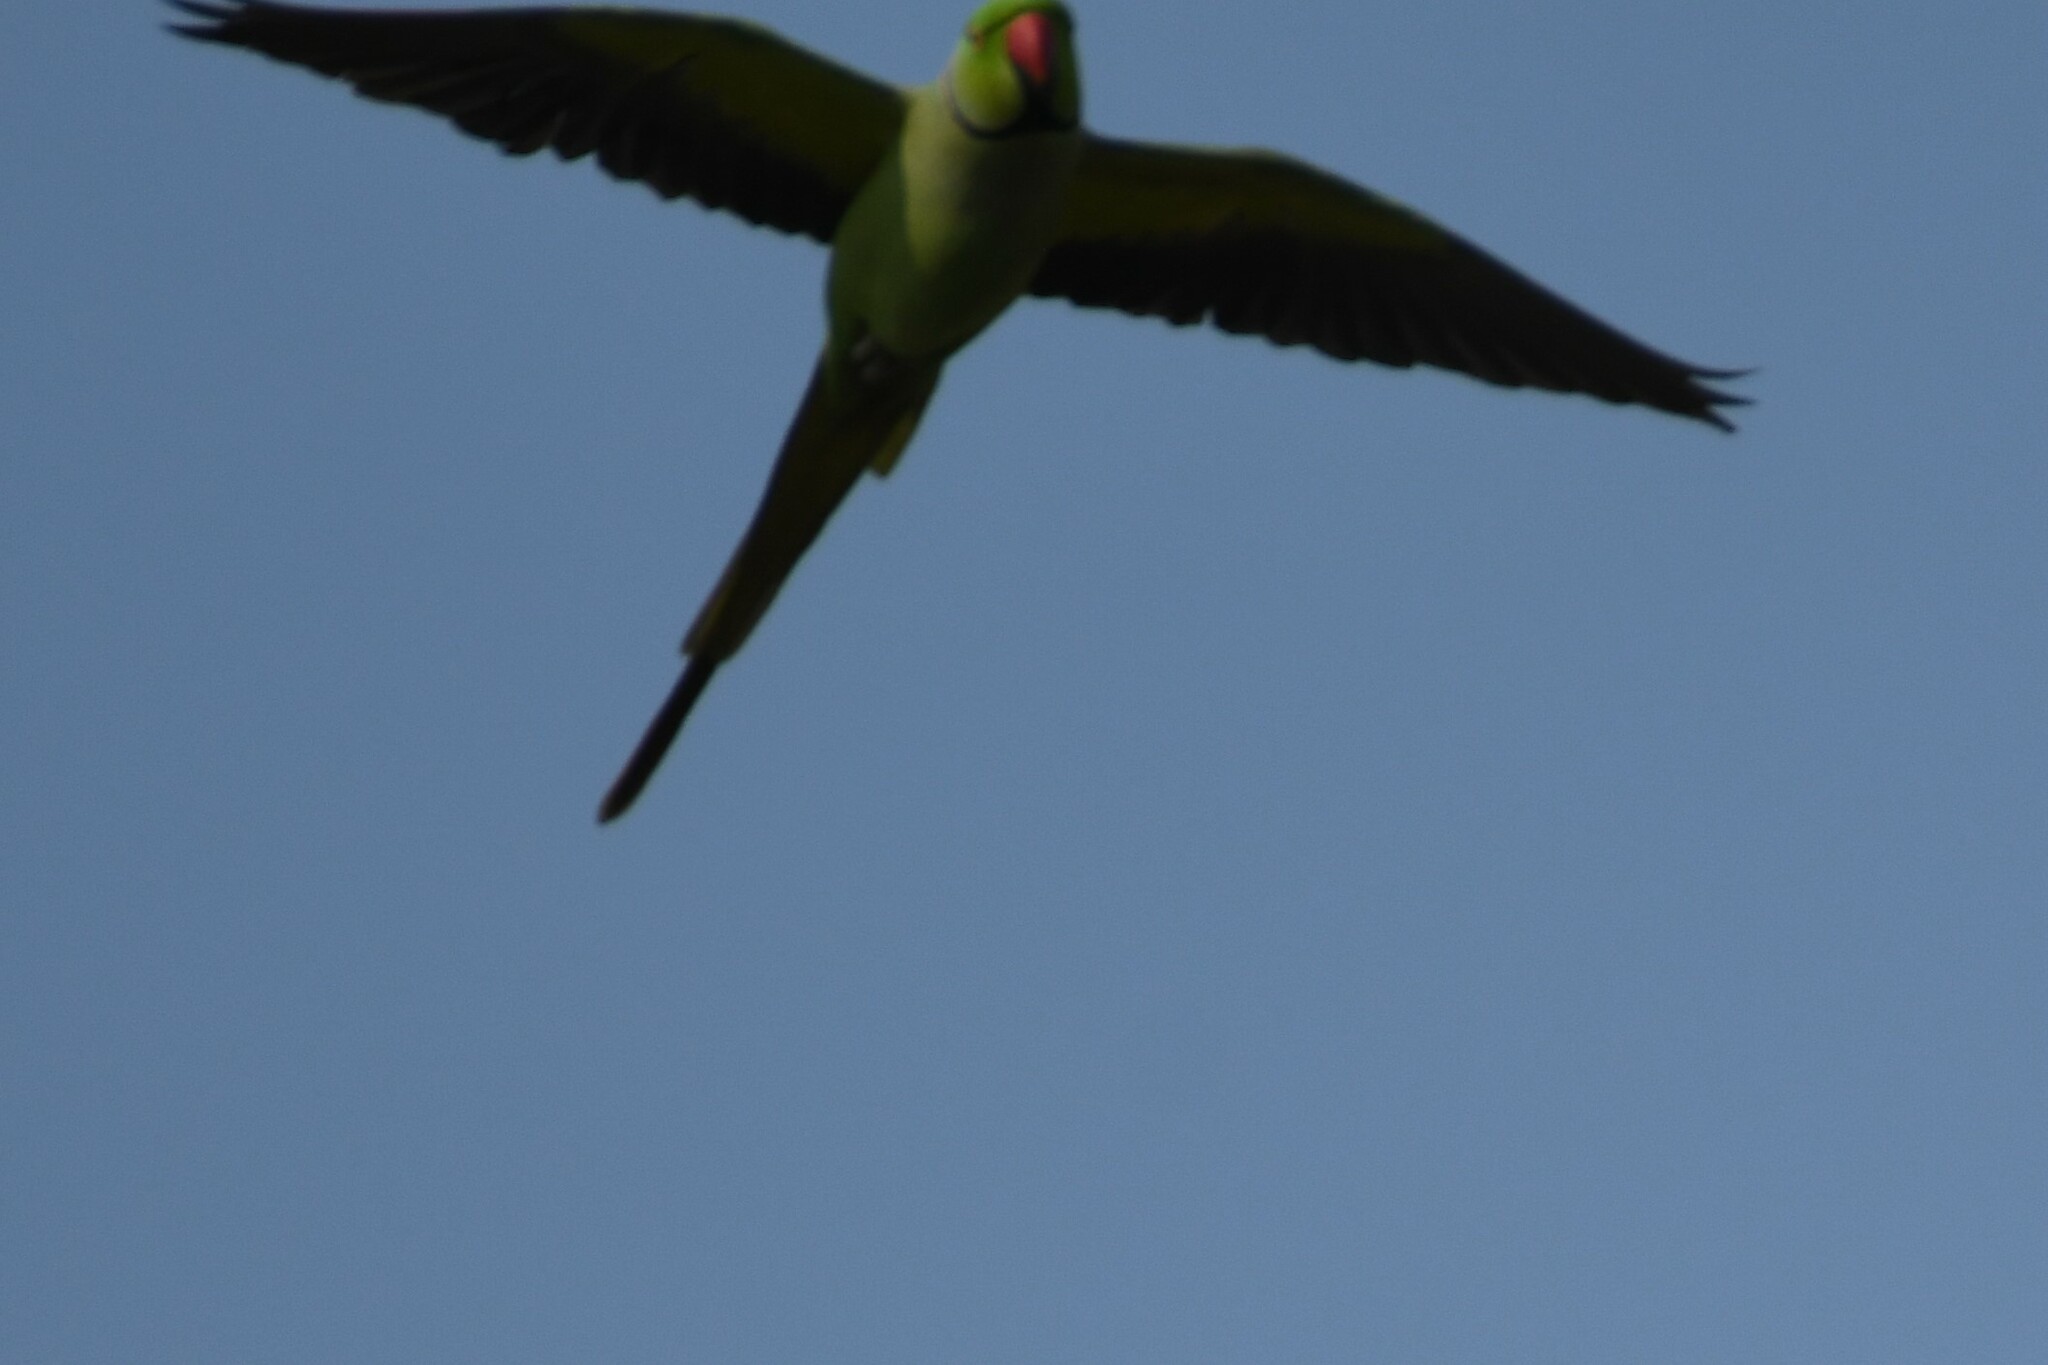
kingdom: Animalia
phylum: Chordata
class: Aves
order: Psittaciformes
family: Psittacidae
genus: Psittacula
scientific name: Psittacula krameri
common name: Rose-ringed parakeet
